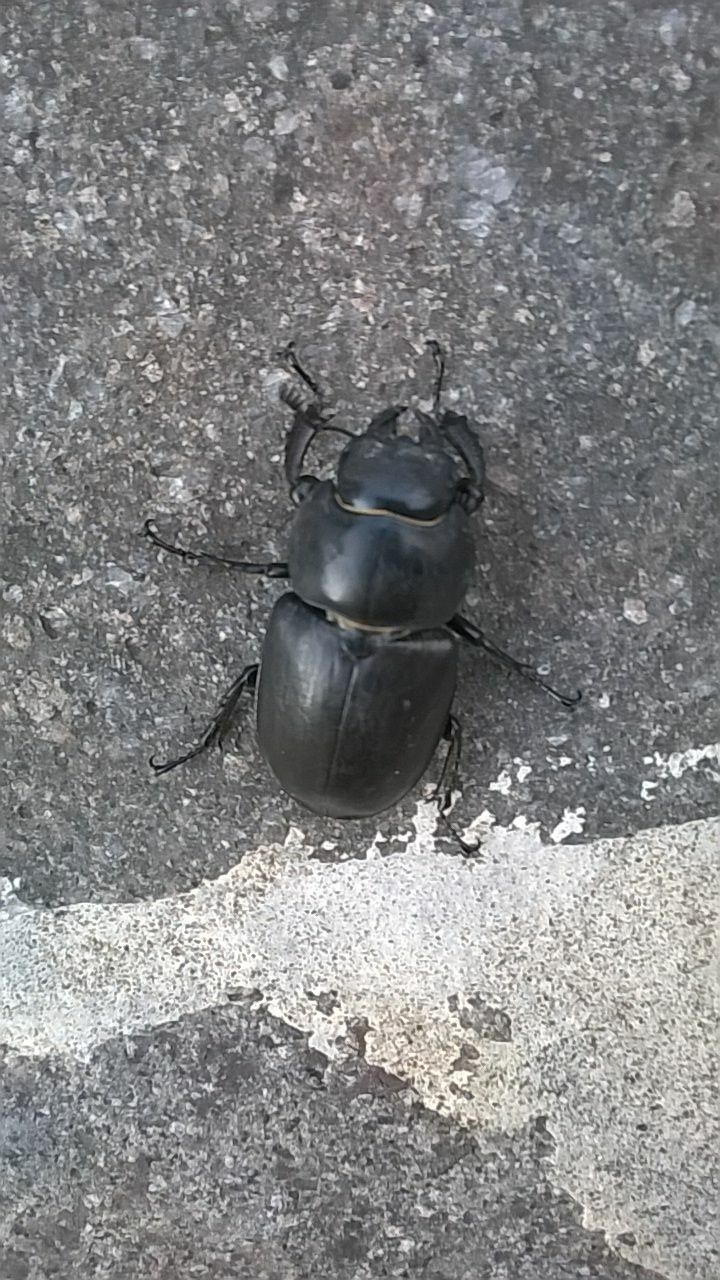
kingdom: Animalia
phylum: Arthropoda
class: Insecta
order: Coleoptera
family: Lucanidae
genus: Lucanus
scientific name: Lucanus cervus
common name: Stag beetle
